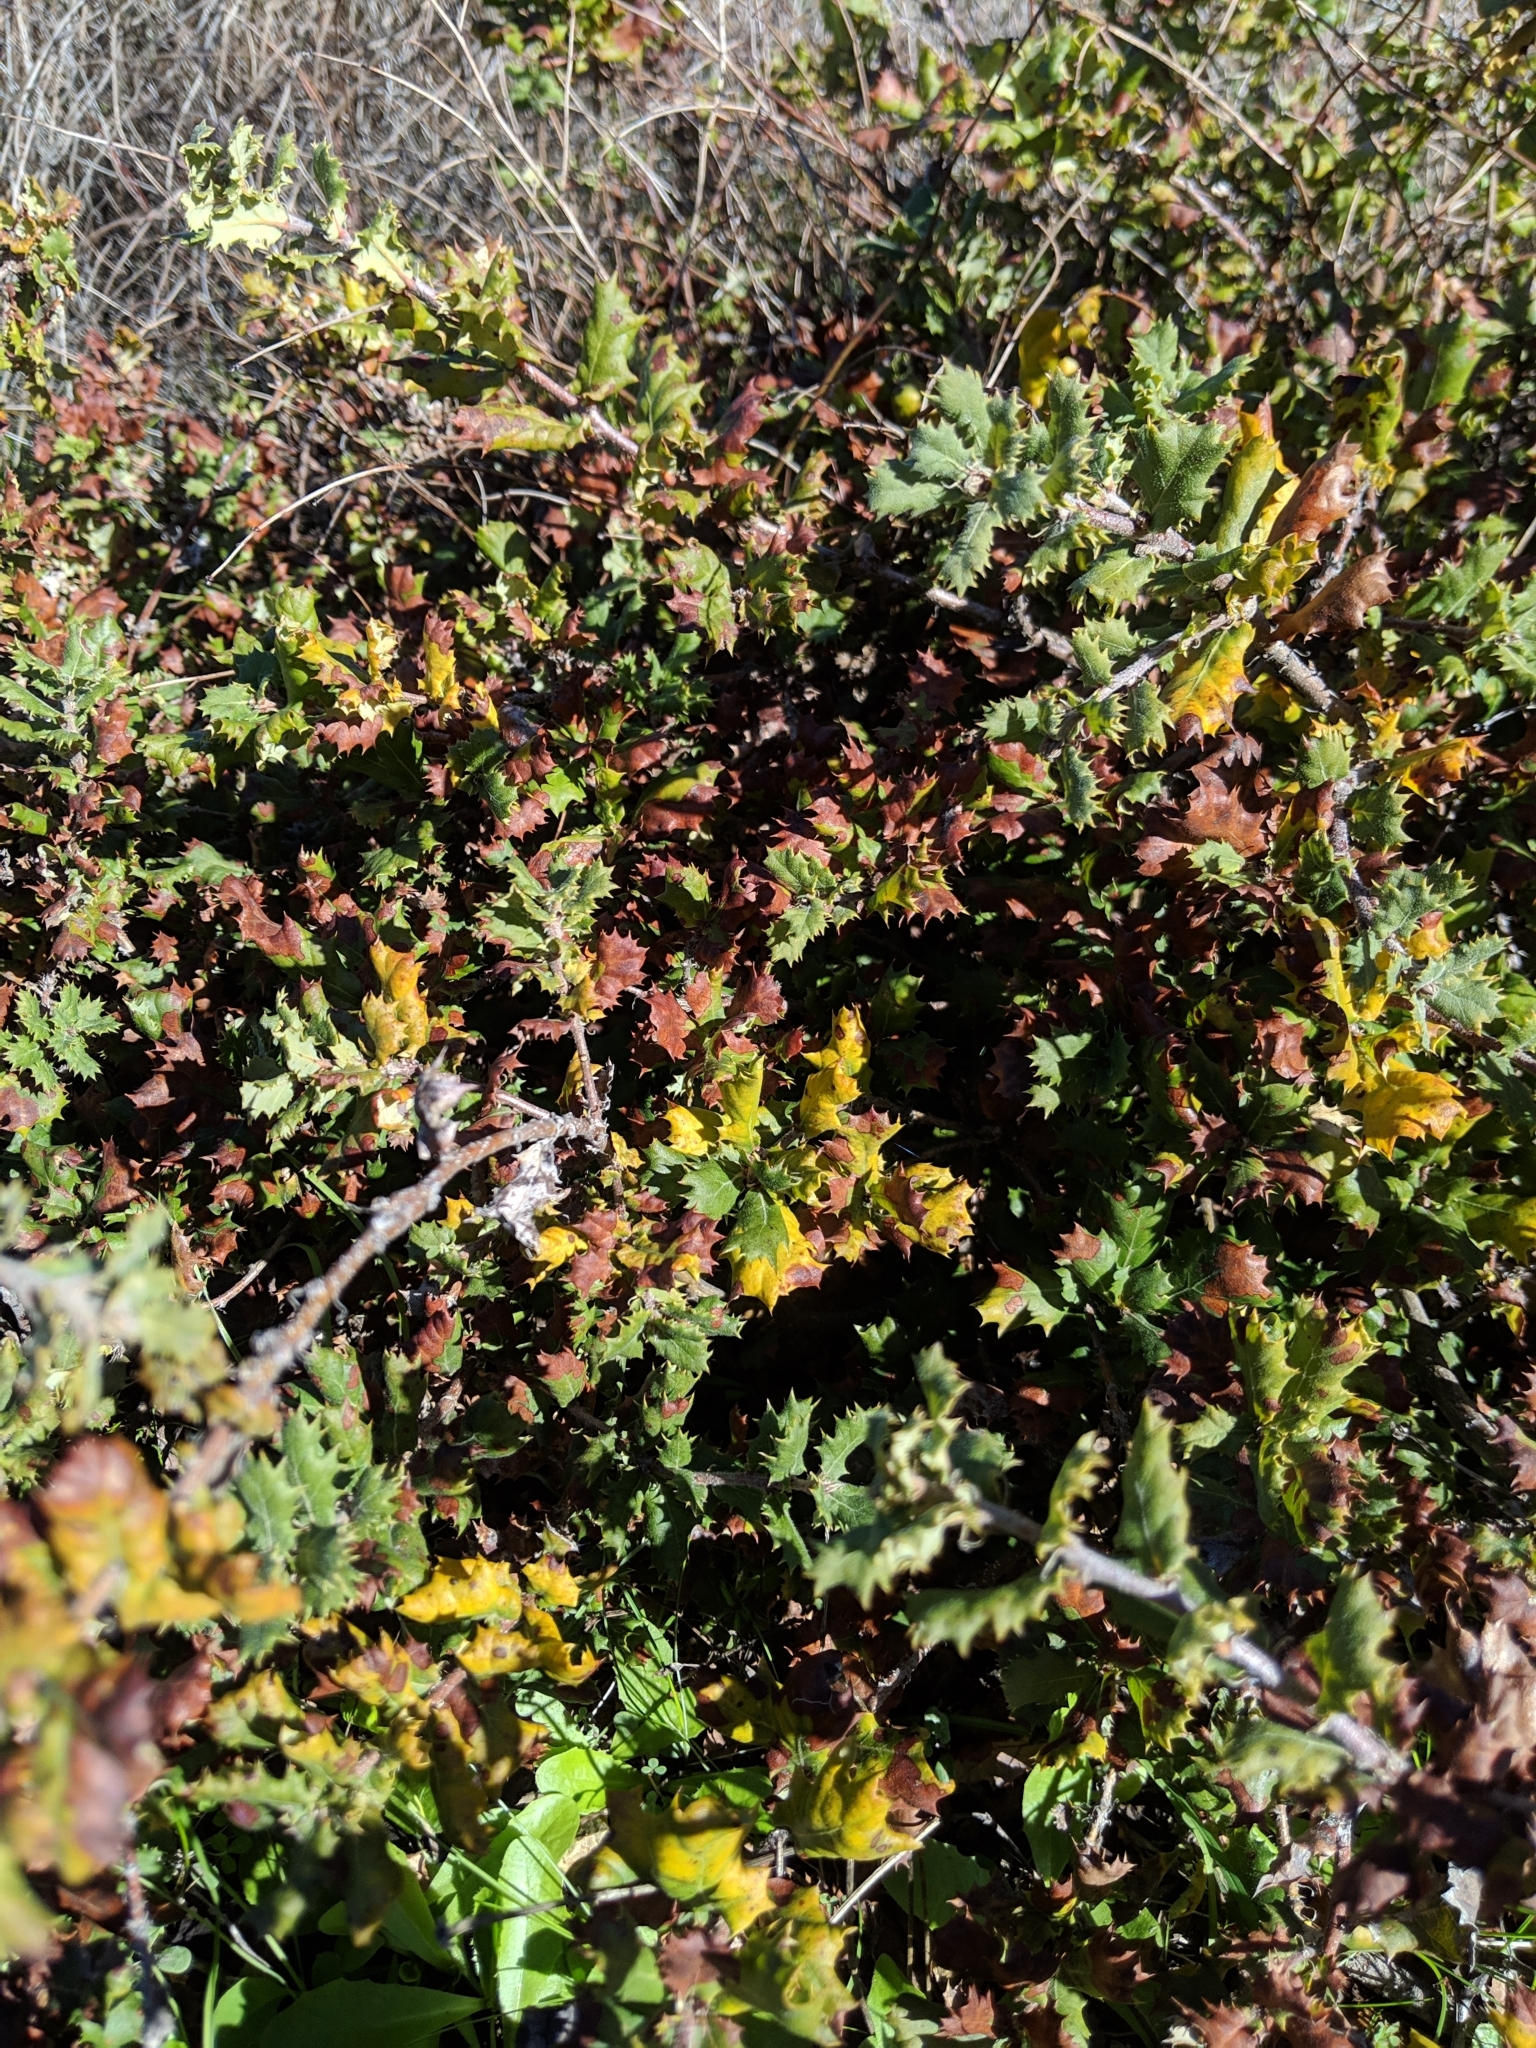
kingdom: Plantae
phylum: Tracheophyta
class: Magnoliopsida
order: Fagales
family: Fagaceae
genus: Quercus
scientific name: Quercus durata
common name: Leather oak
